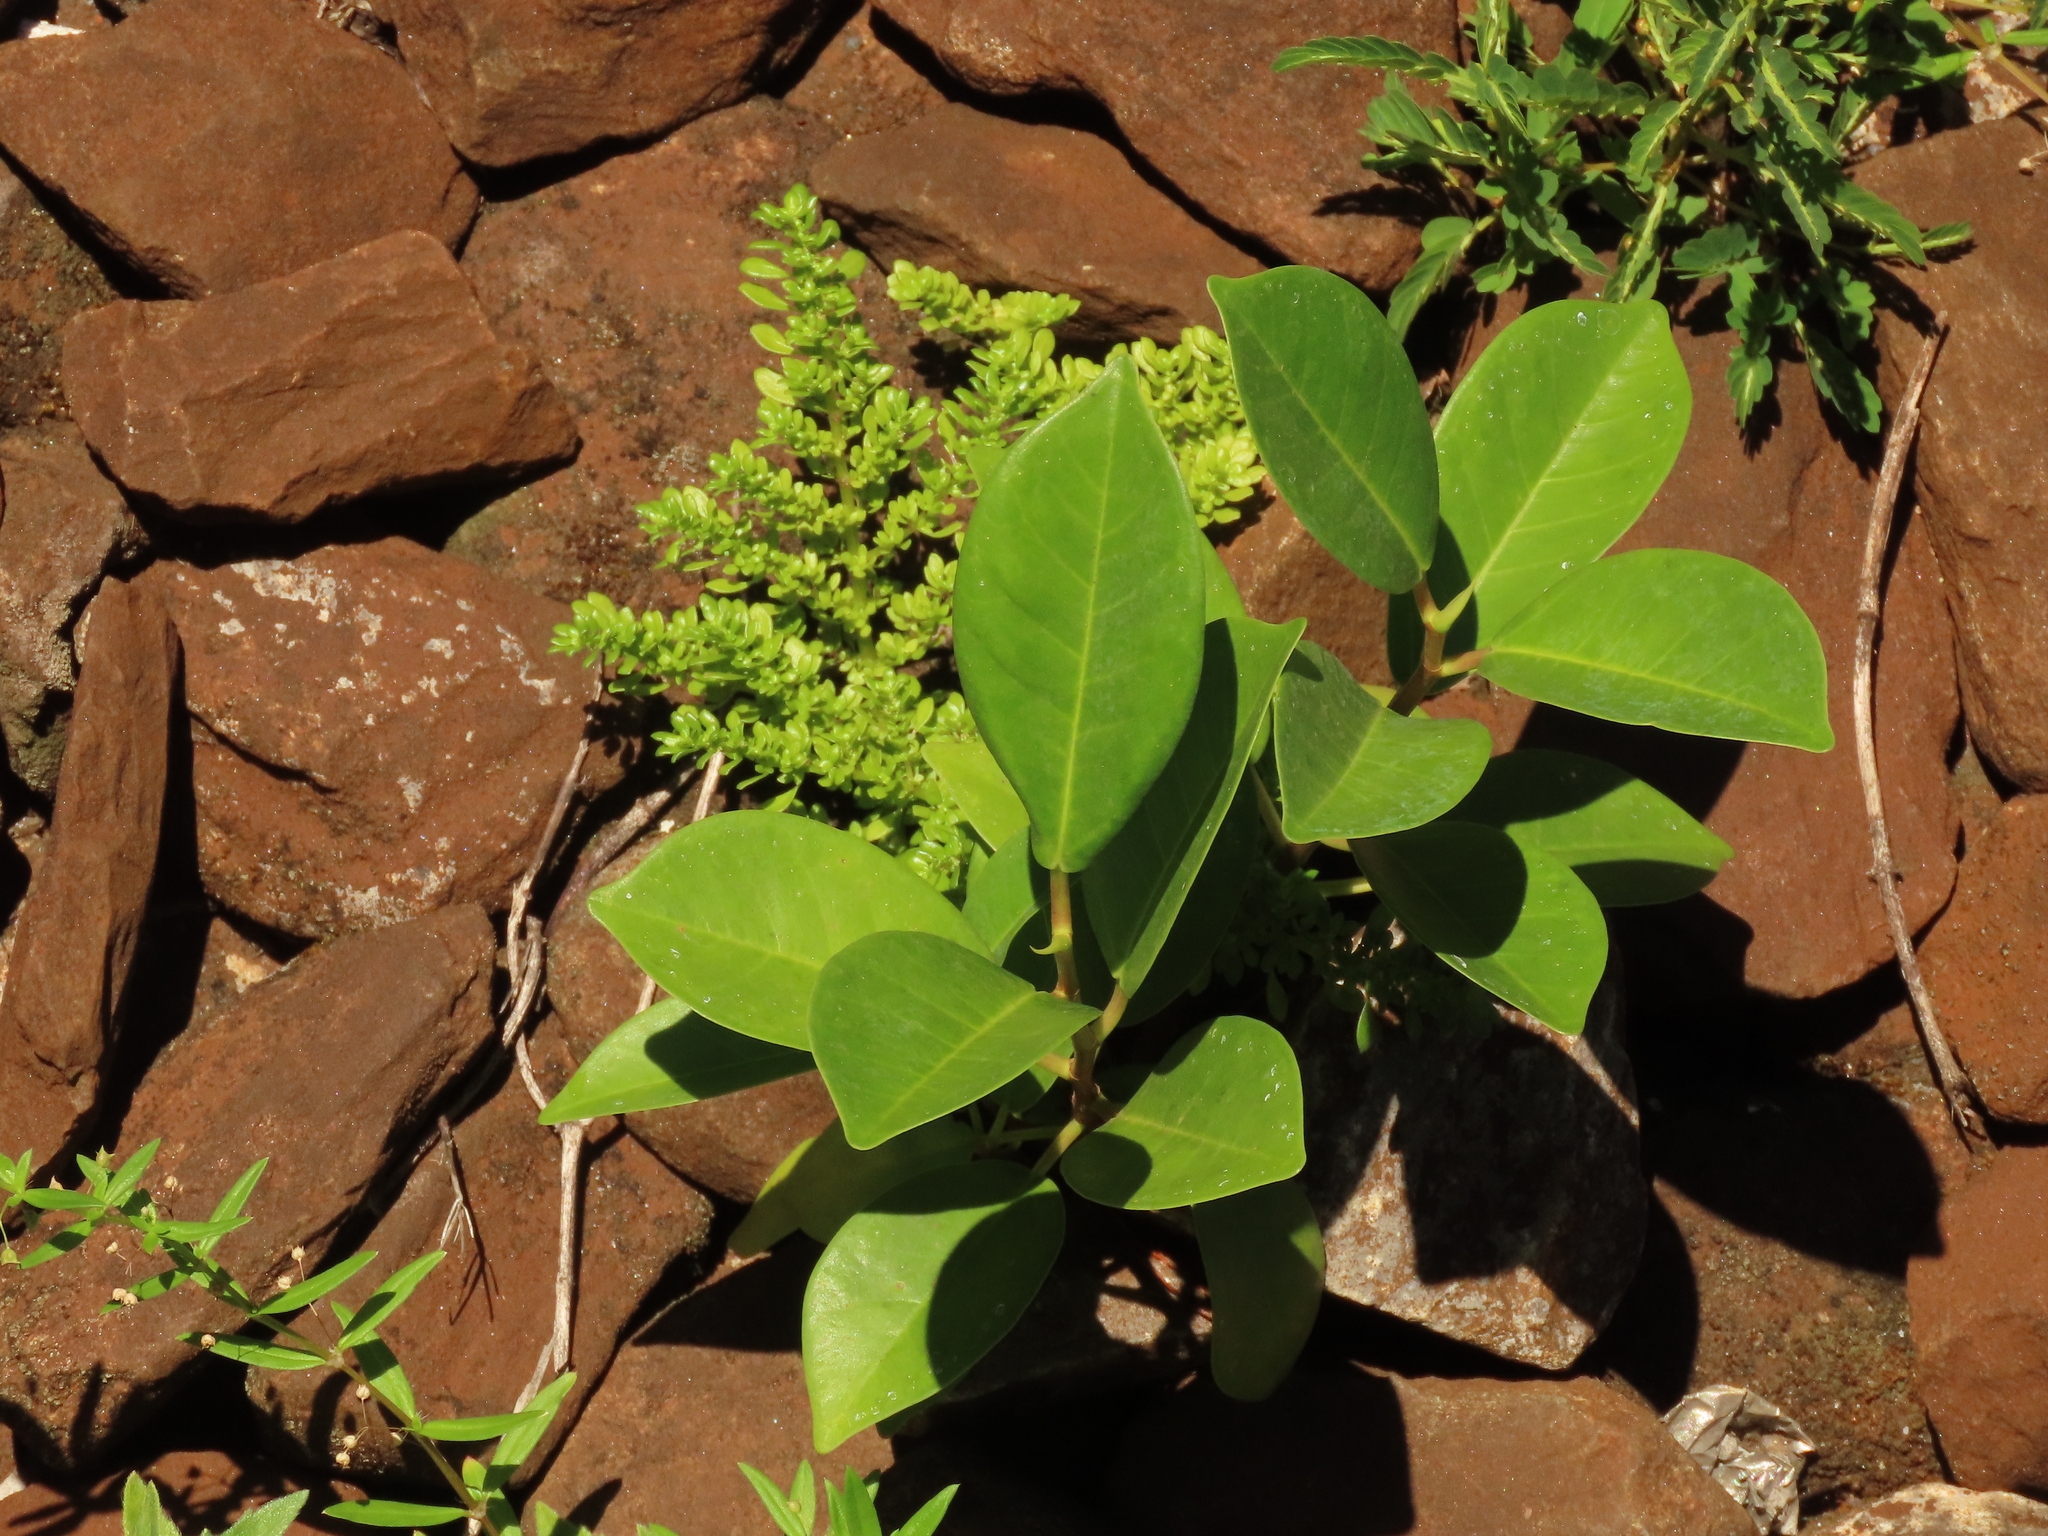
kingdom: Plantae
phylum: Tracheophyta
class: Magnoliopsida
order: Rosales
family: Moraceae
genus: Ficus
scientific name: Ficus microcarpa
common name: Chinese banyan
